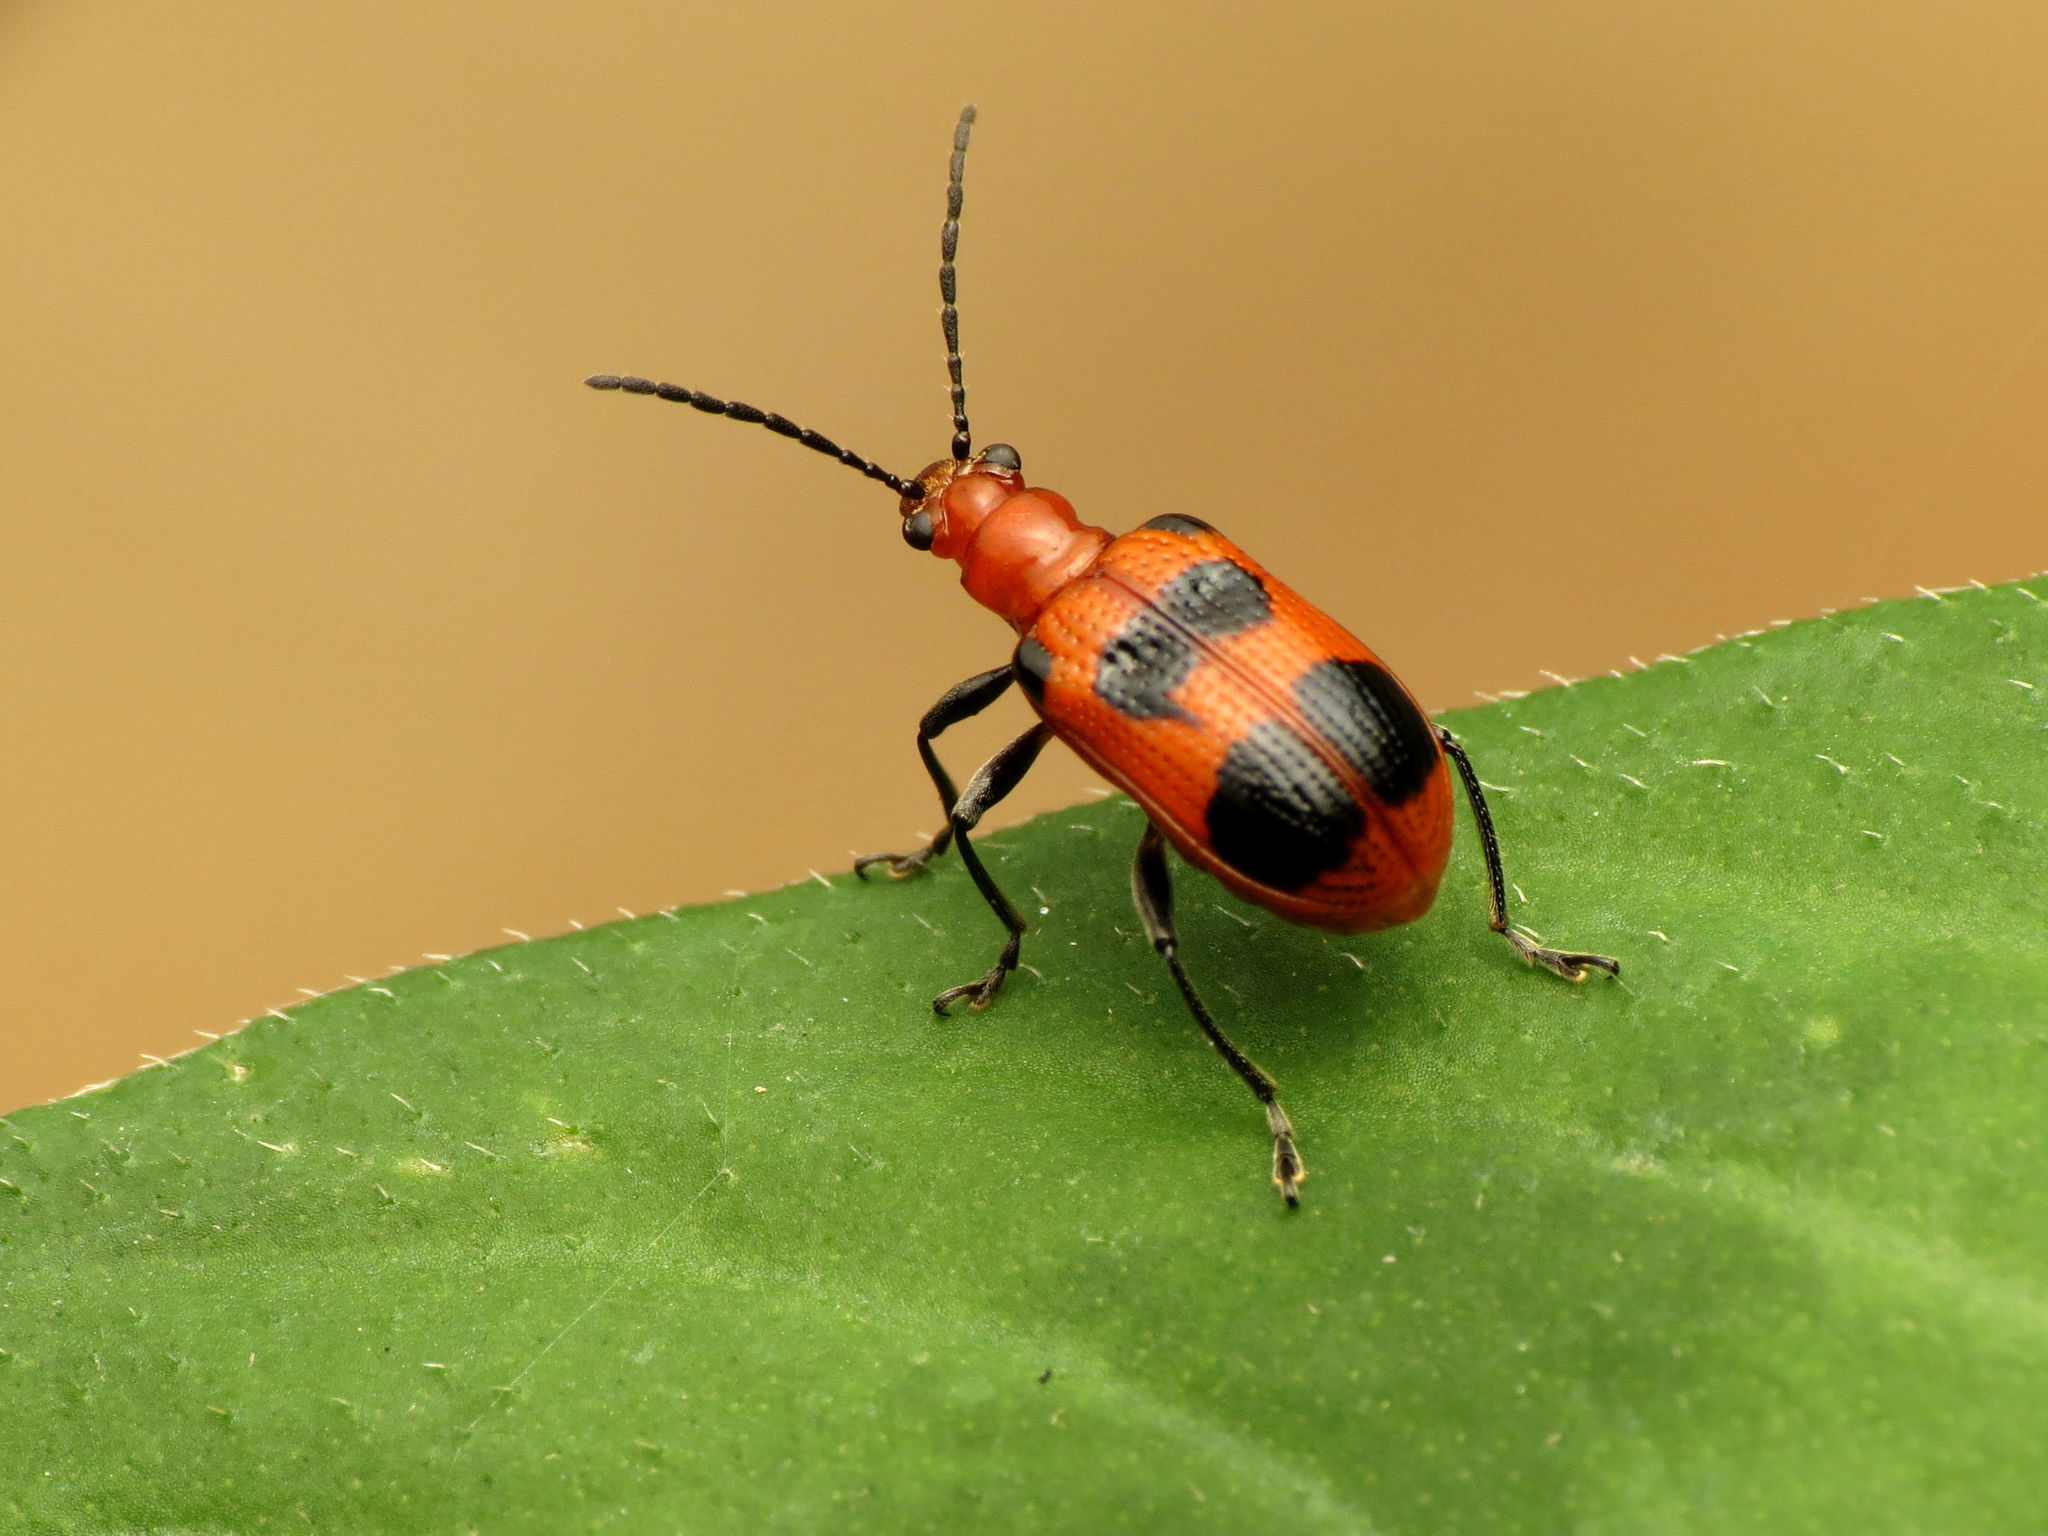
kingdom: Animalia
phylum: Arthropoda
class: Insecta
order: Coleoptera
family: Chrysomelidae
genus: Neolema
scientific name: Neolema sexpunctata
